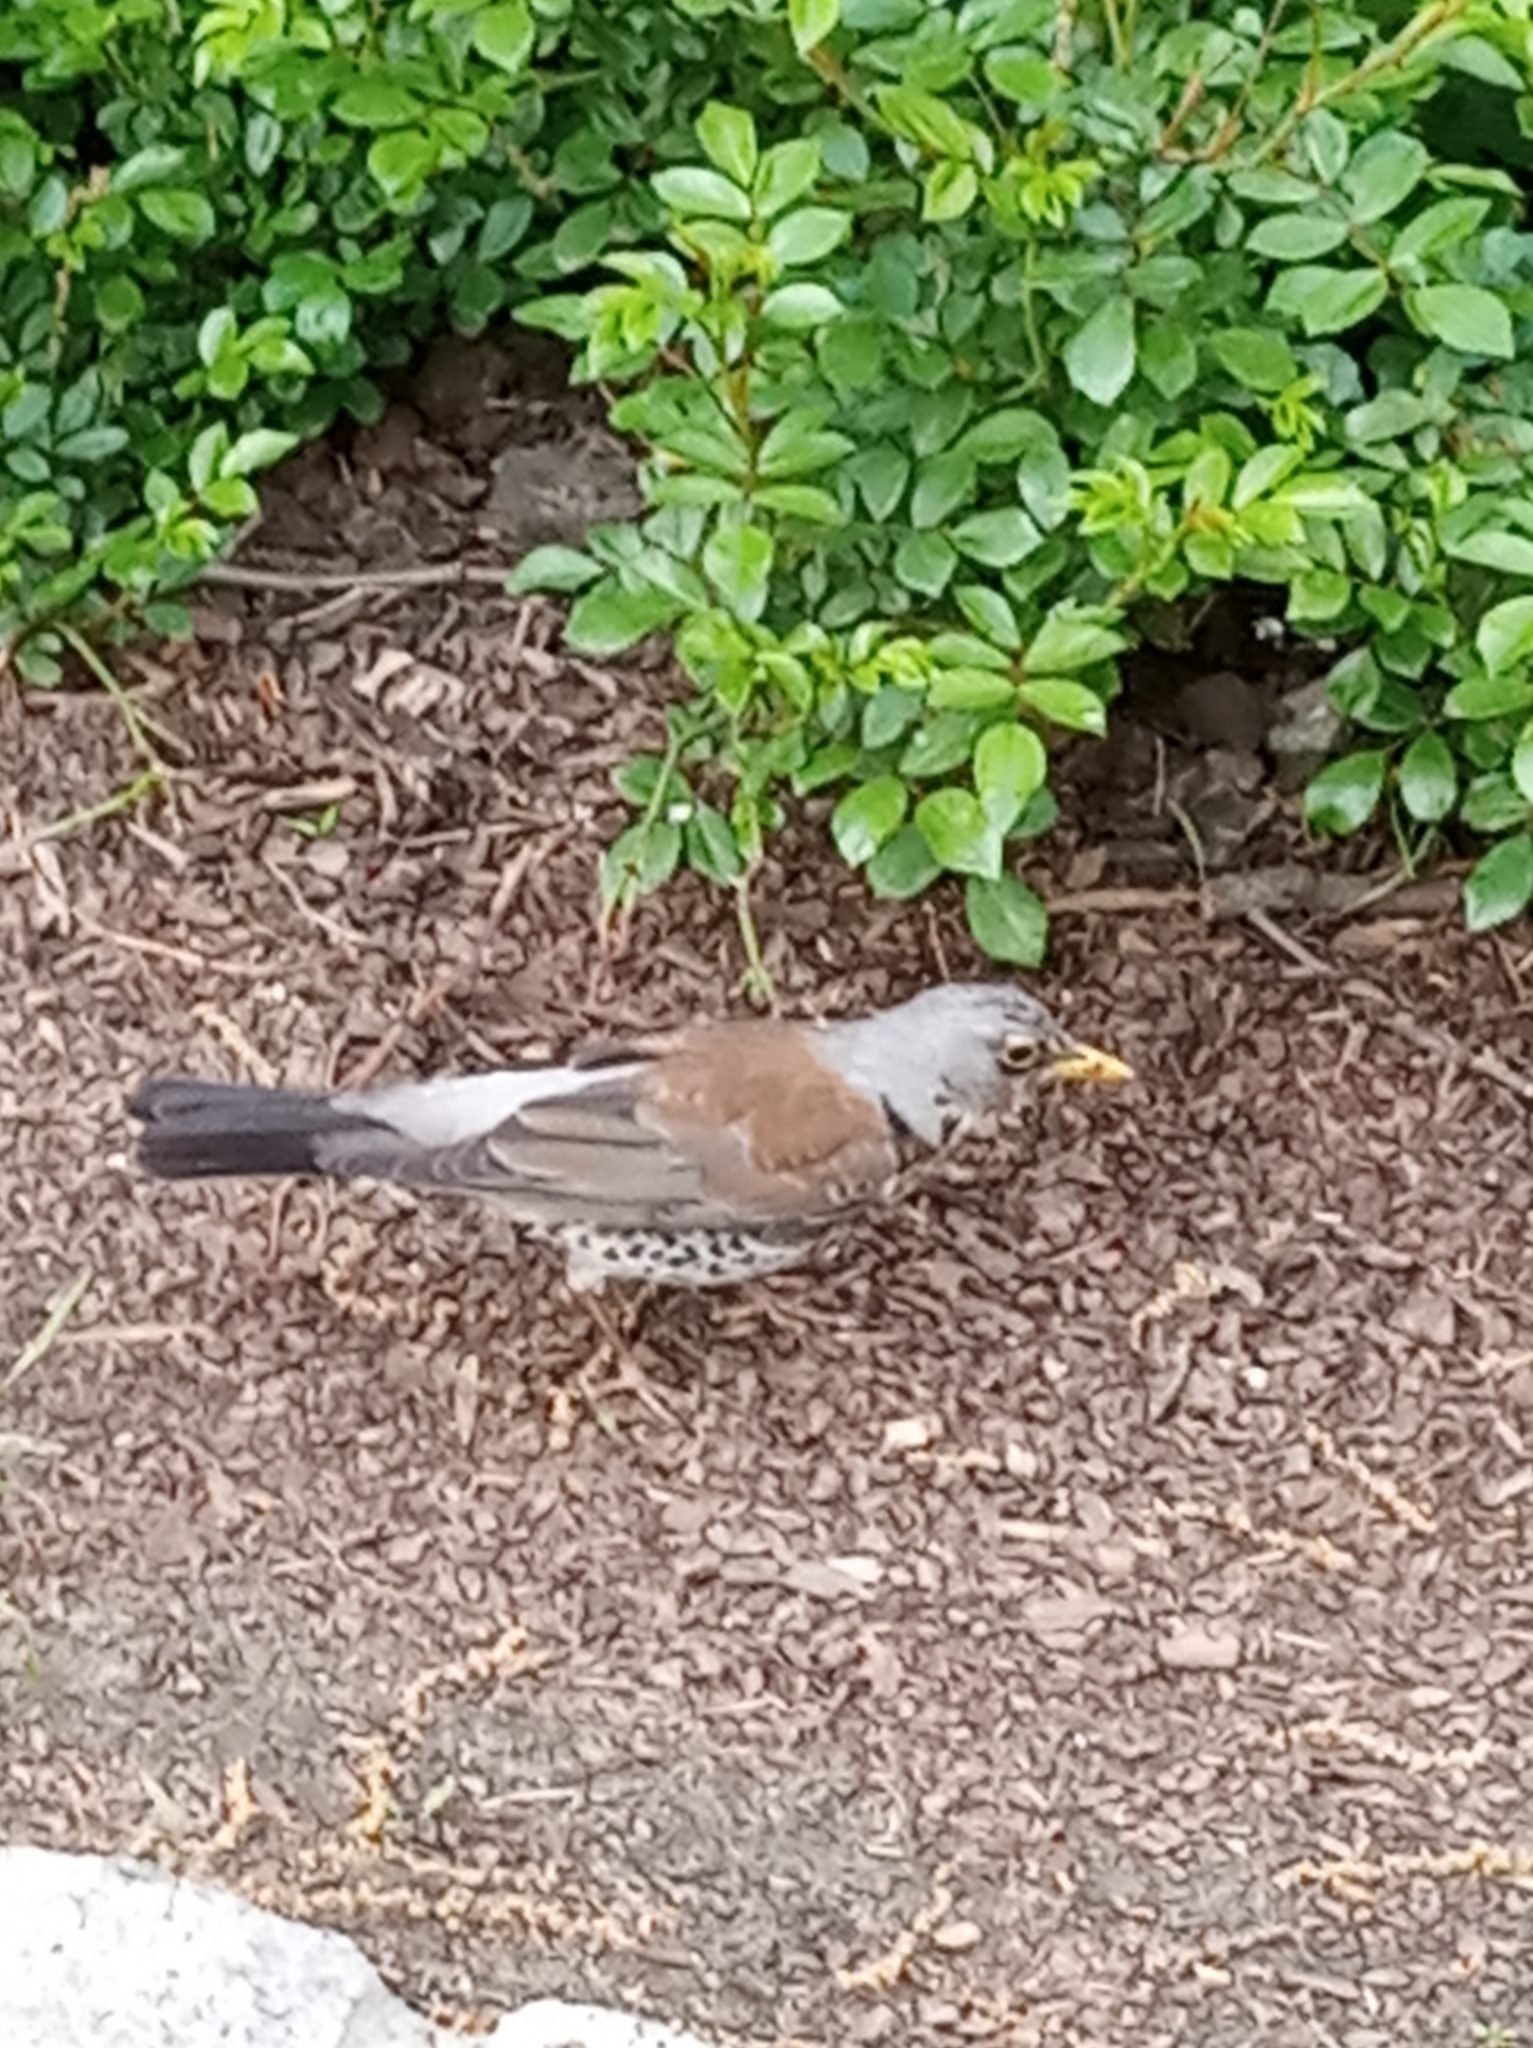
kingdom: Animalia
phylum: Chordata
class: Aves
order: Passeriformes
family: Turdidae
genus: Turdus
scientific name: Turdus pilaris
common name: Fieldfare
